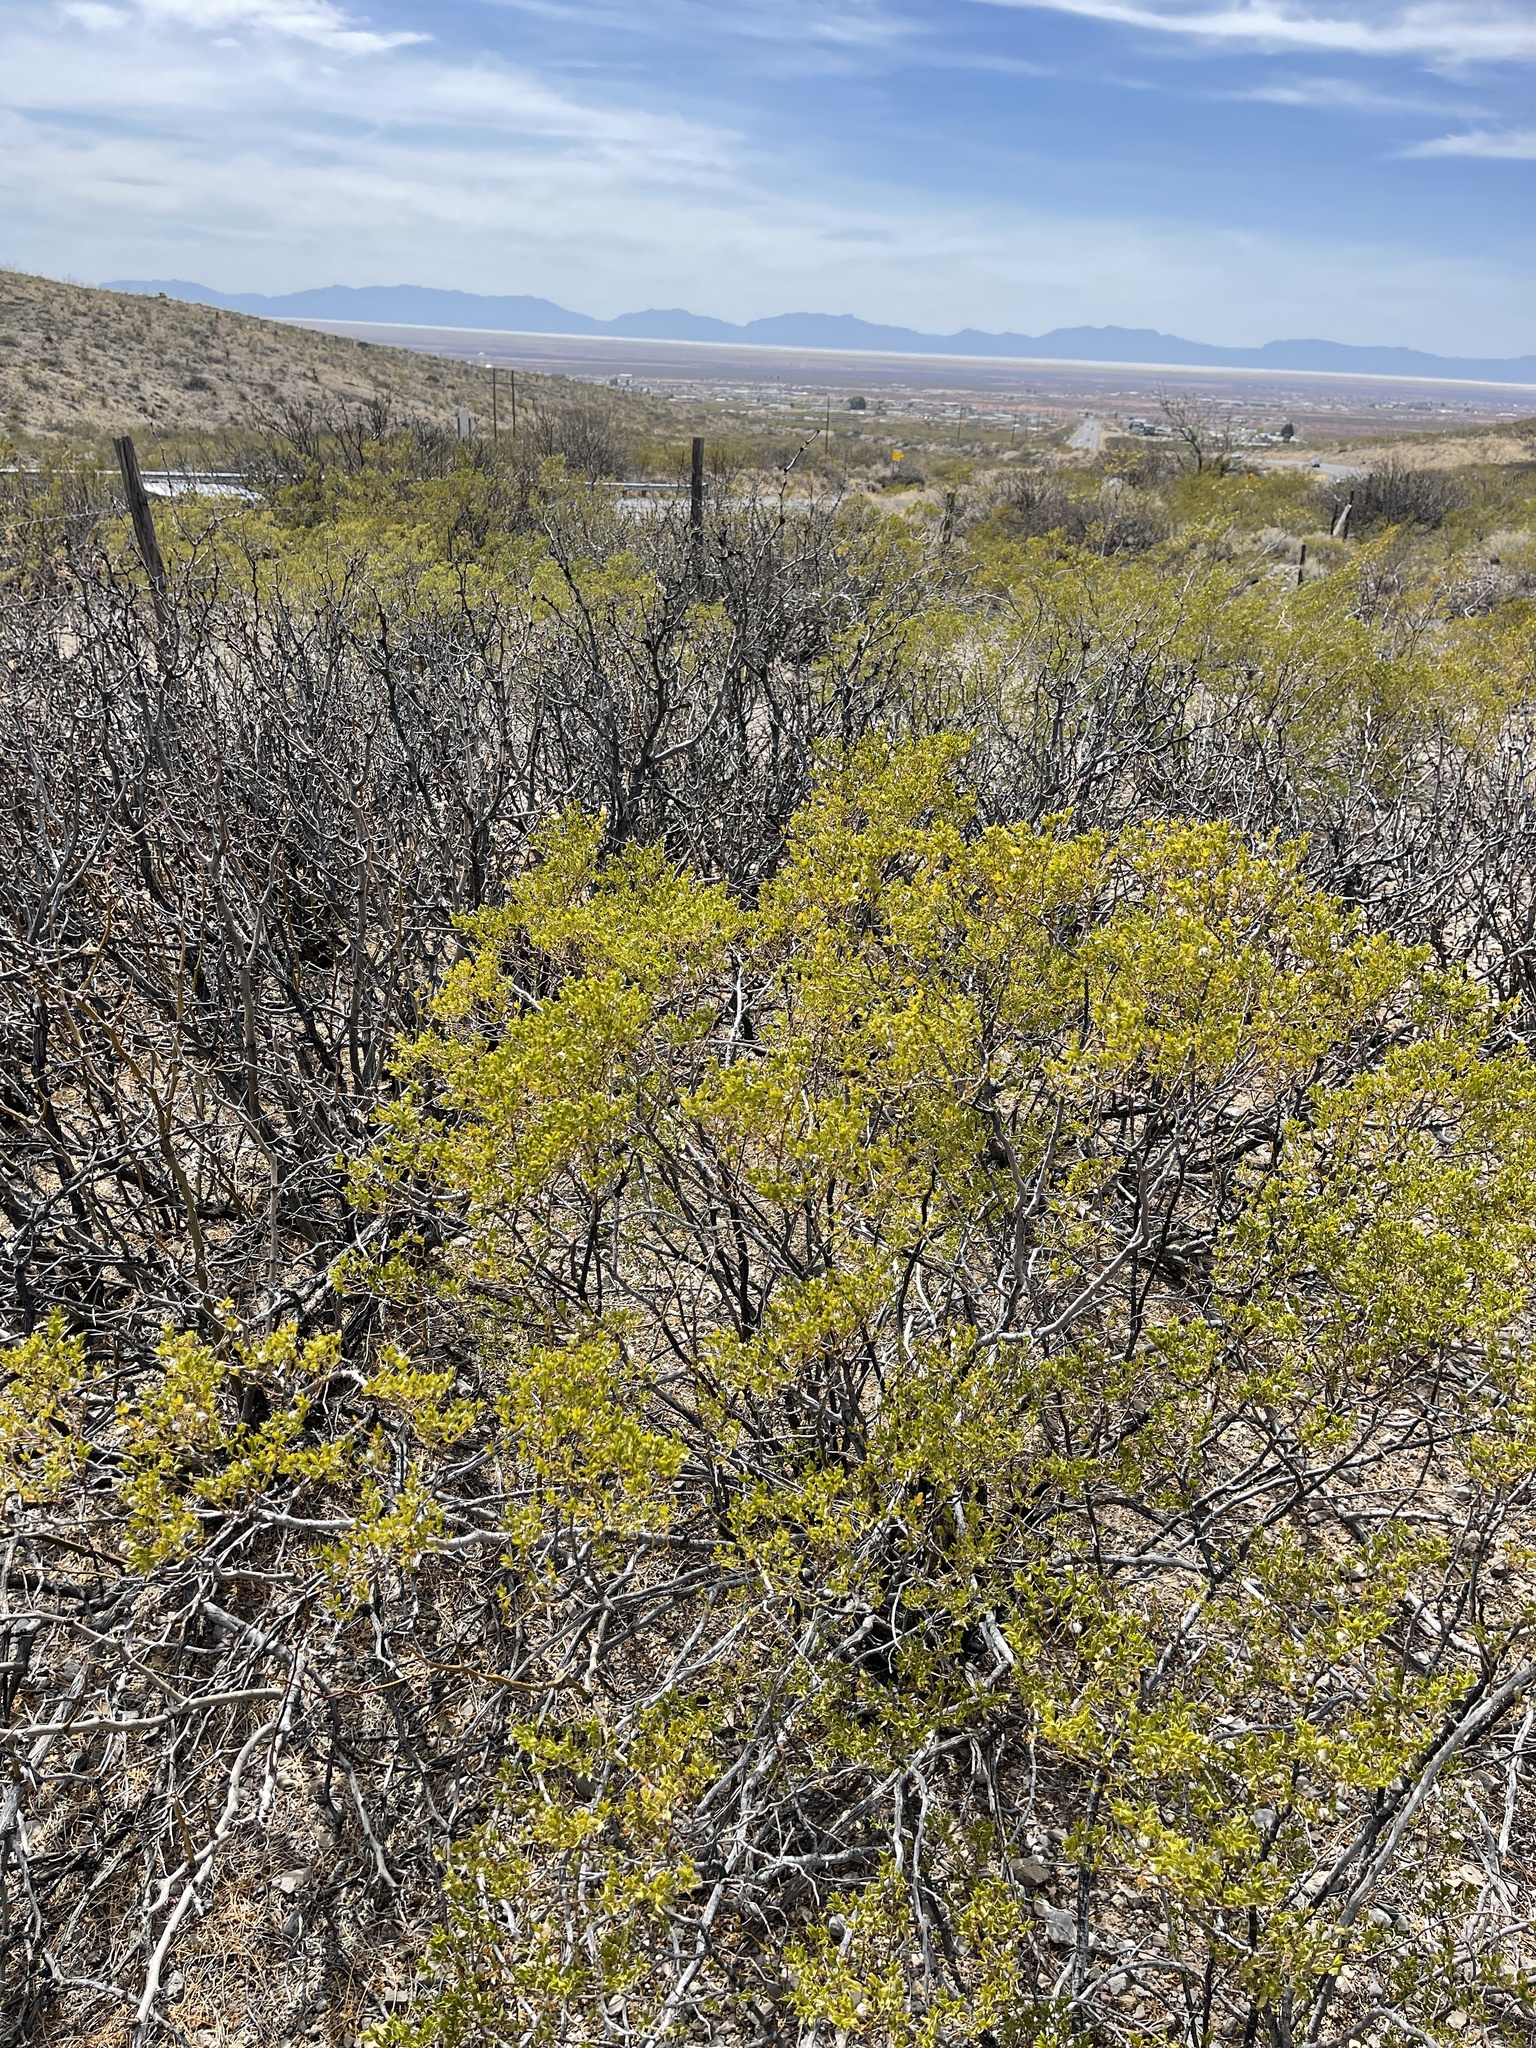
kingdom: Plantae
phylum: Tracheophyta
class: Magnoliopsida
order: Zygophyllales
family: Zygophyllaceae
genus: Larrea
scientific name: Larrea tridentata
